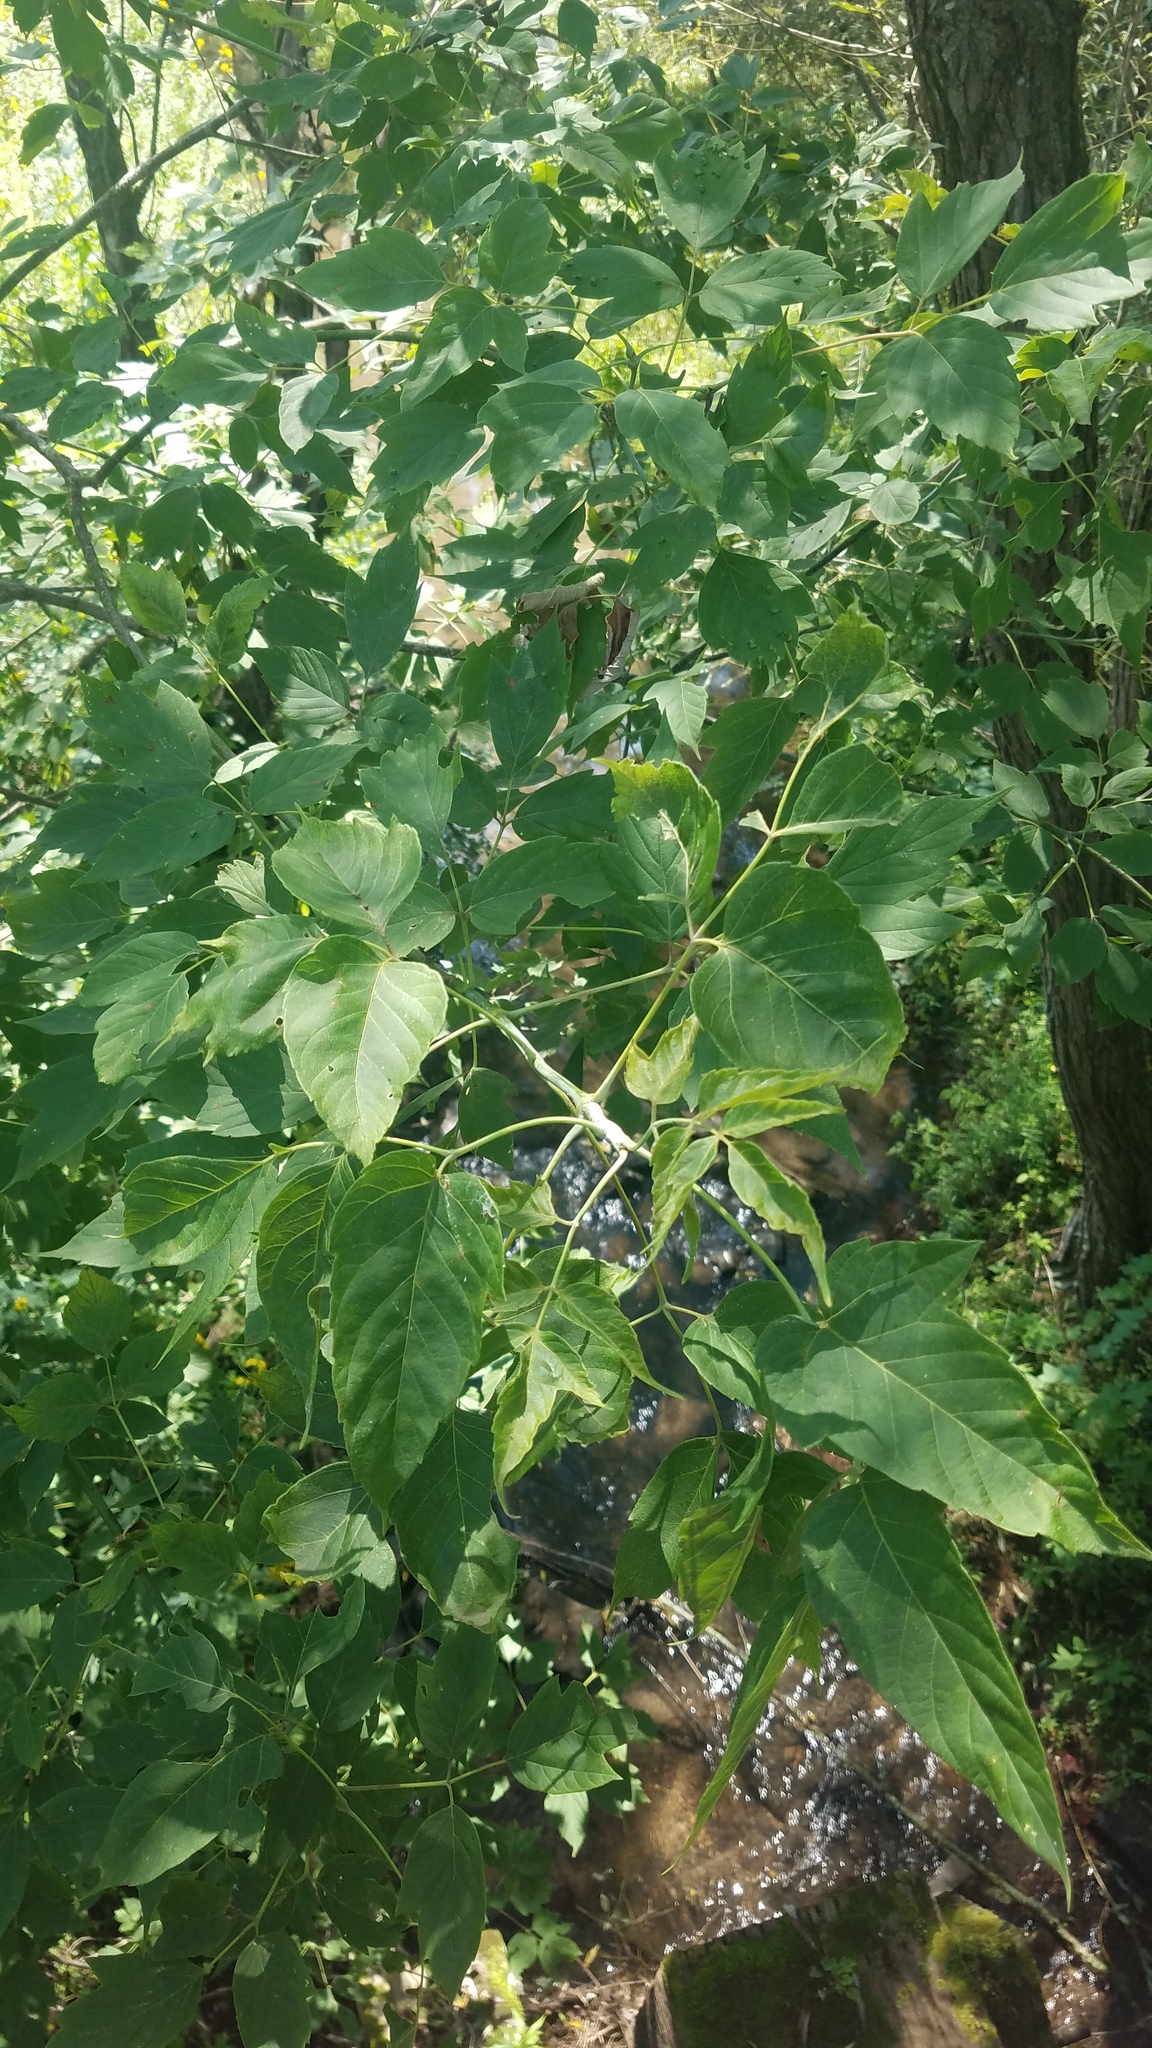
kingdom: Plantae
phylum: Tracheophyta
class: Magnoliopsida
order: Sapindales
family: Sapindaceae
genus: Acer
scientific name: Acer negundo
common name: Ashleaf maple
